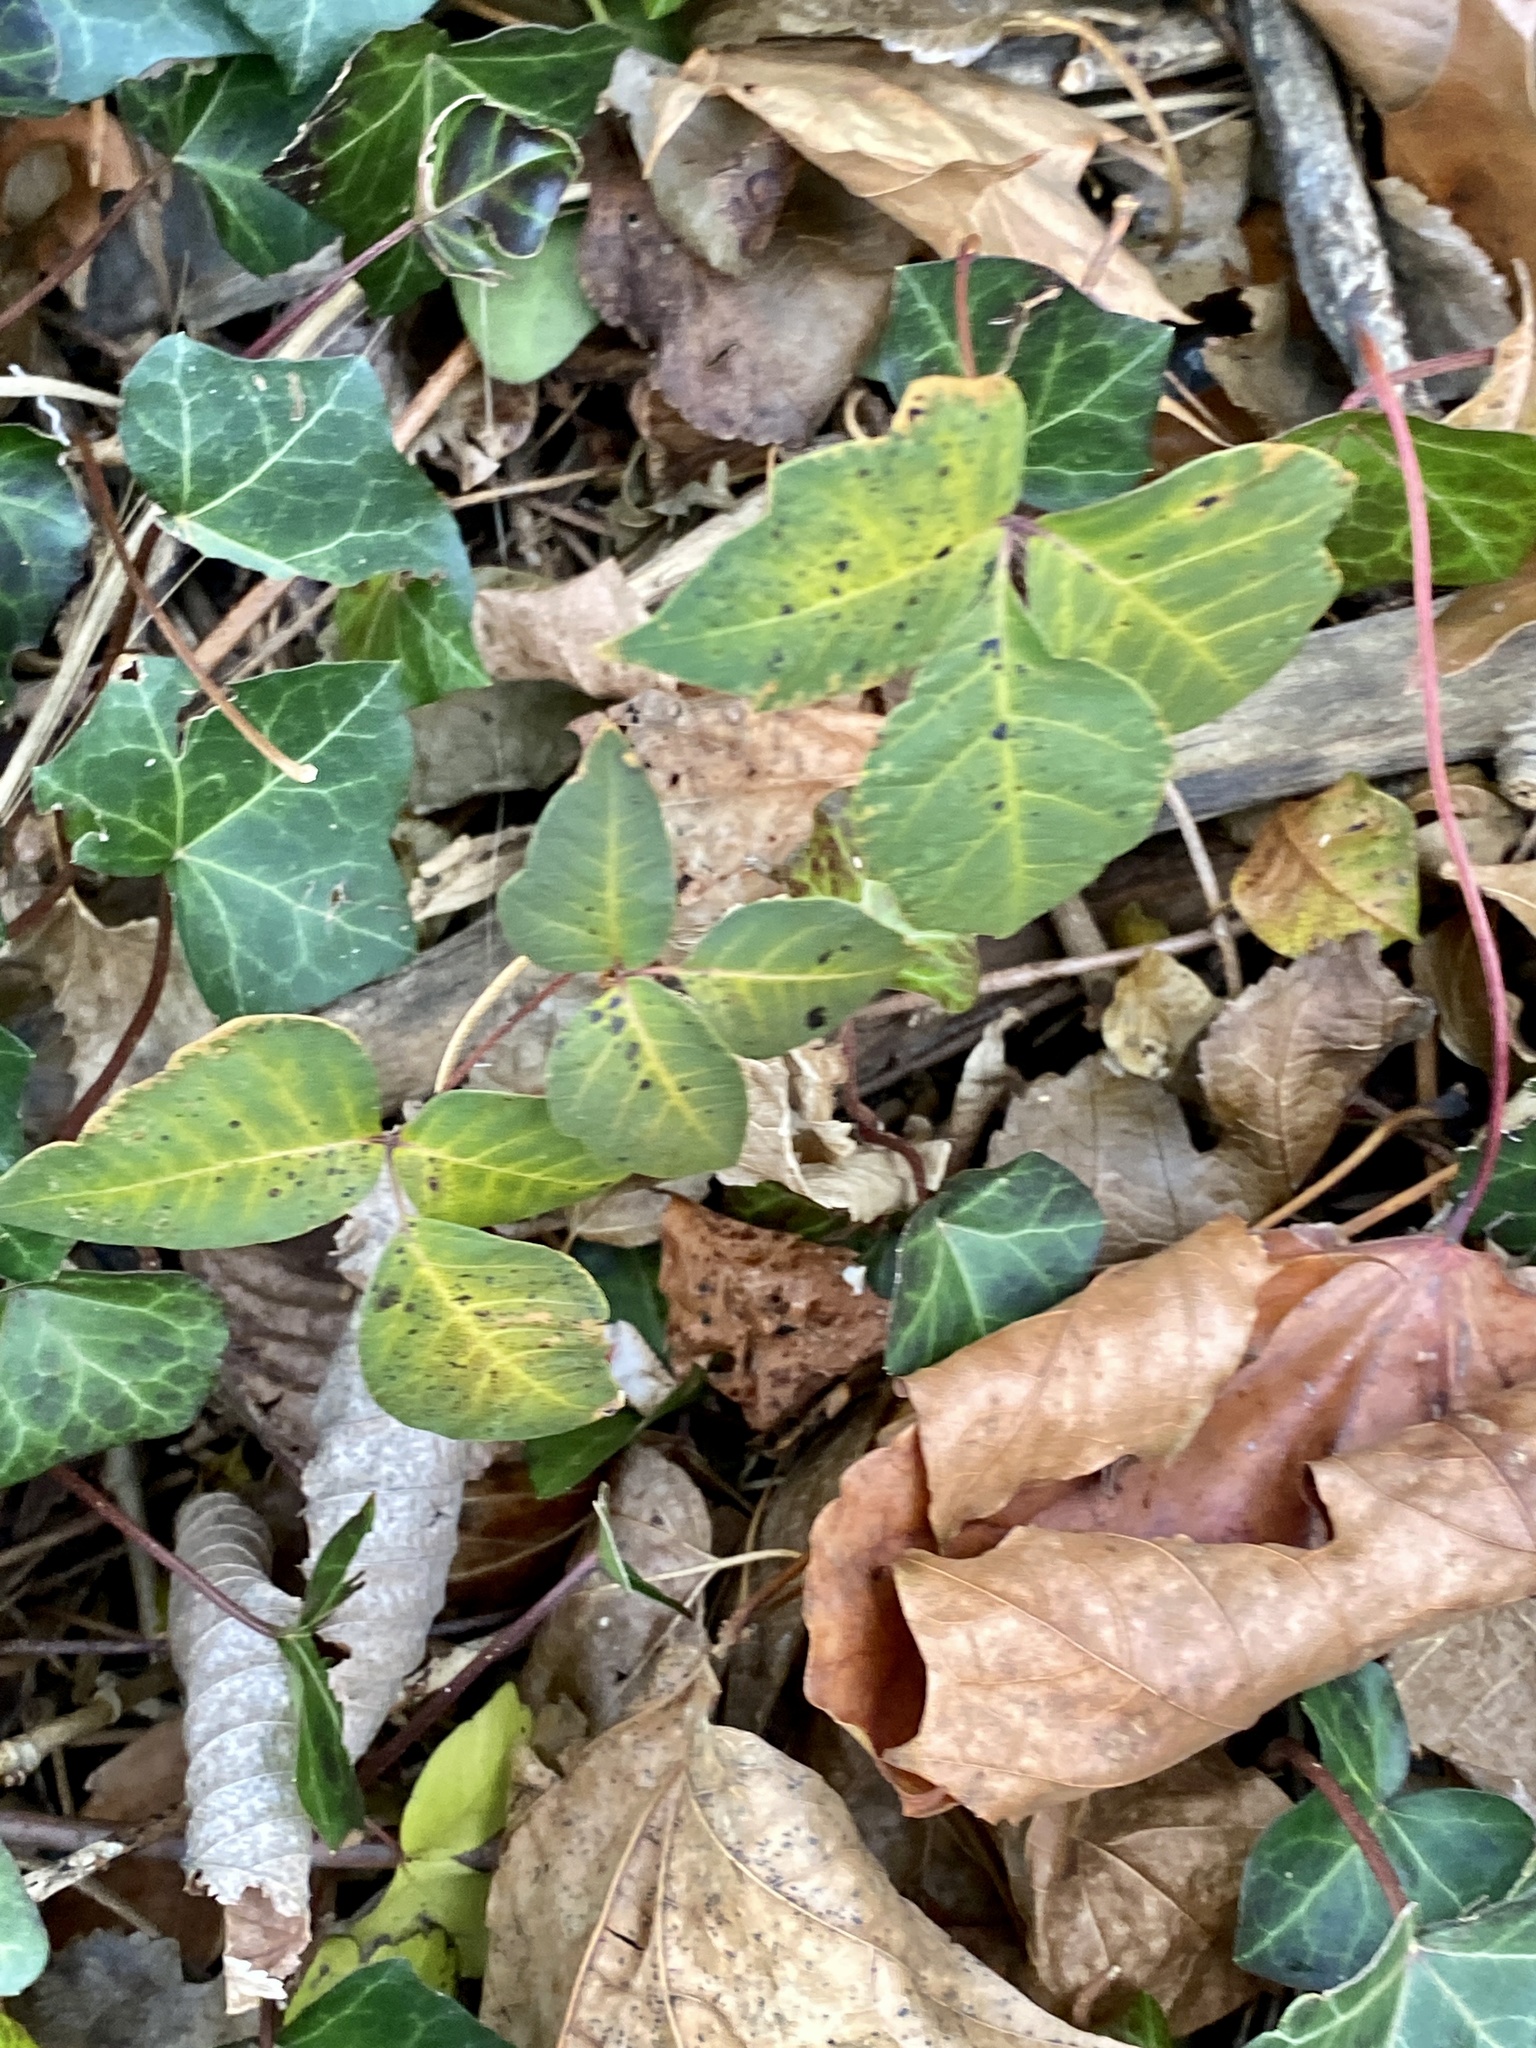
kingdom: Plantae
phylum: Tracheophyta
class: Magnoliopsida
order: Sapindales
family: Anacardiaceae
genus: Toxicodendron
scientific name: Toxicodendron radicans
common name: Poison ivy
